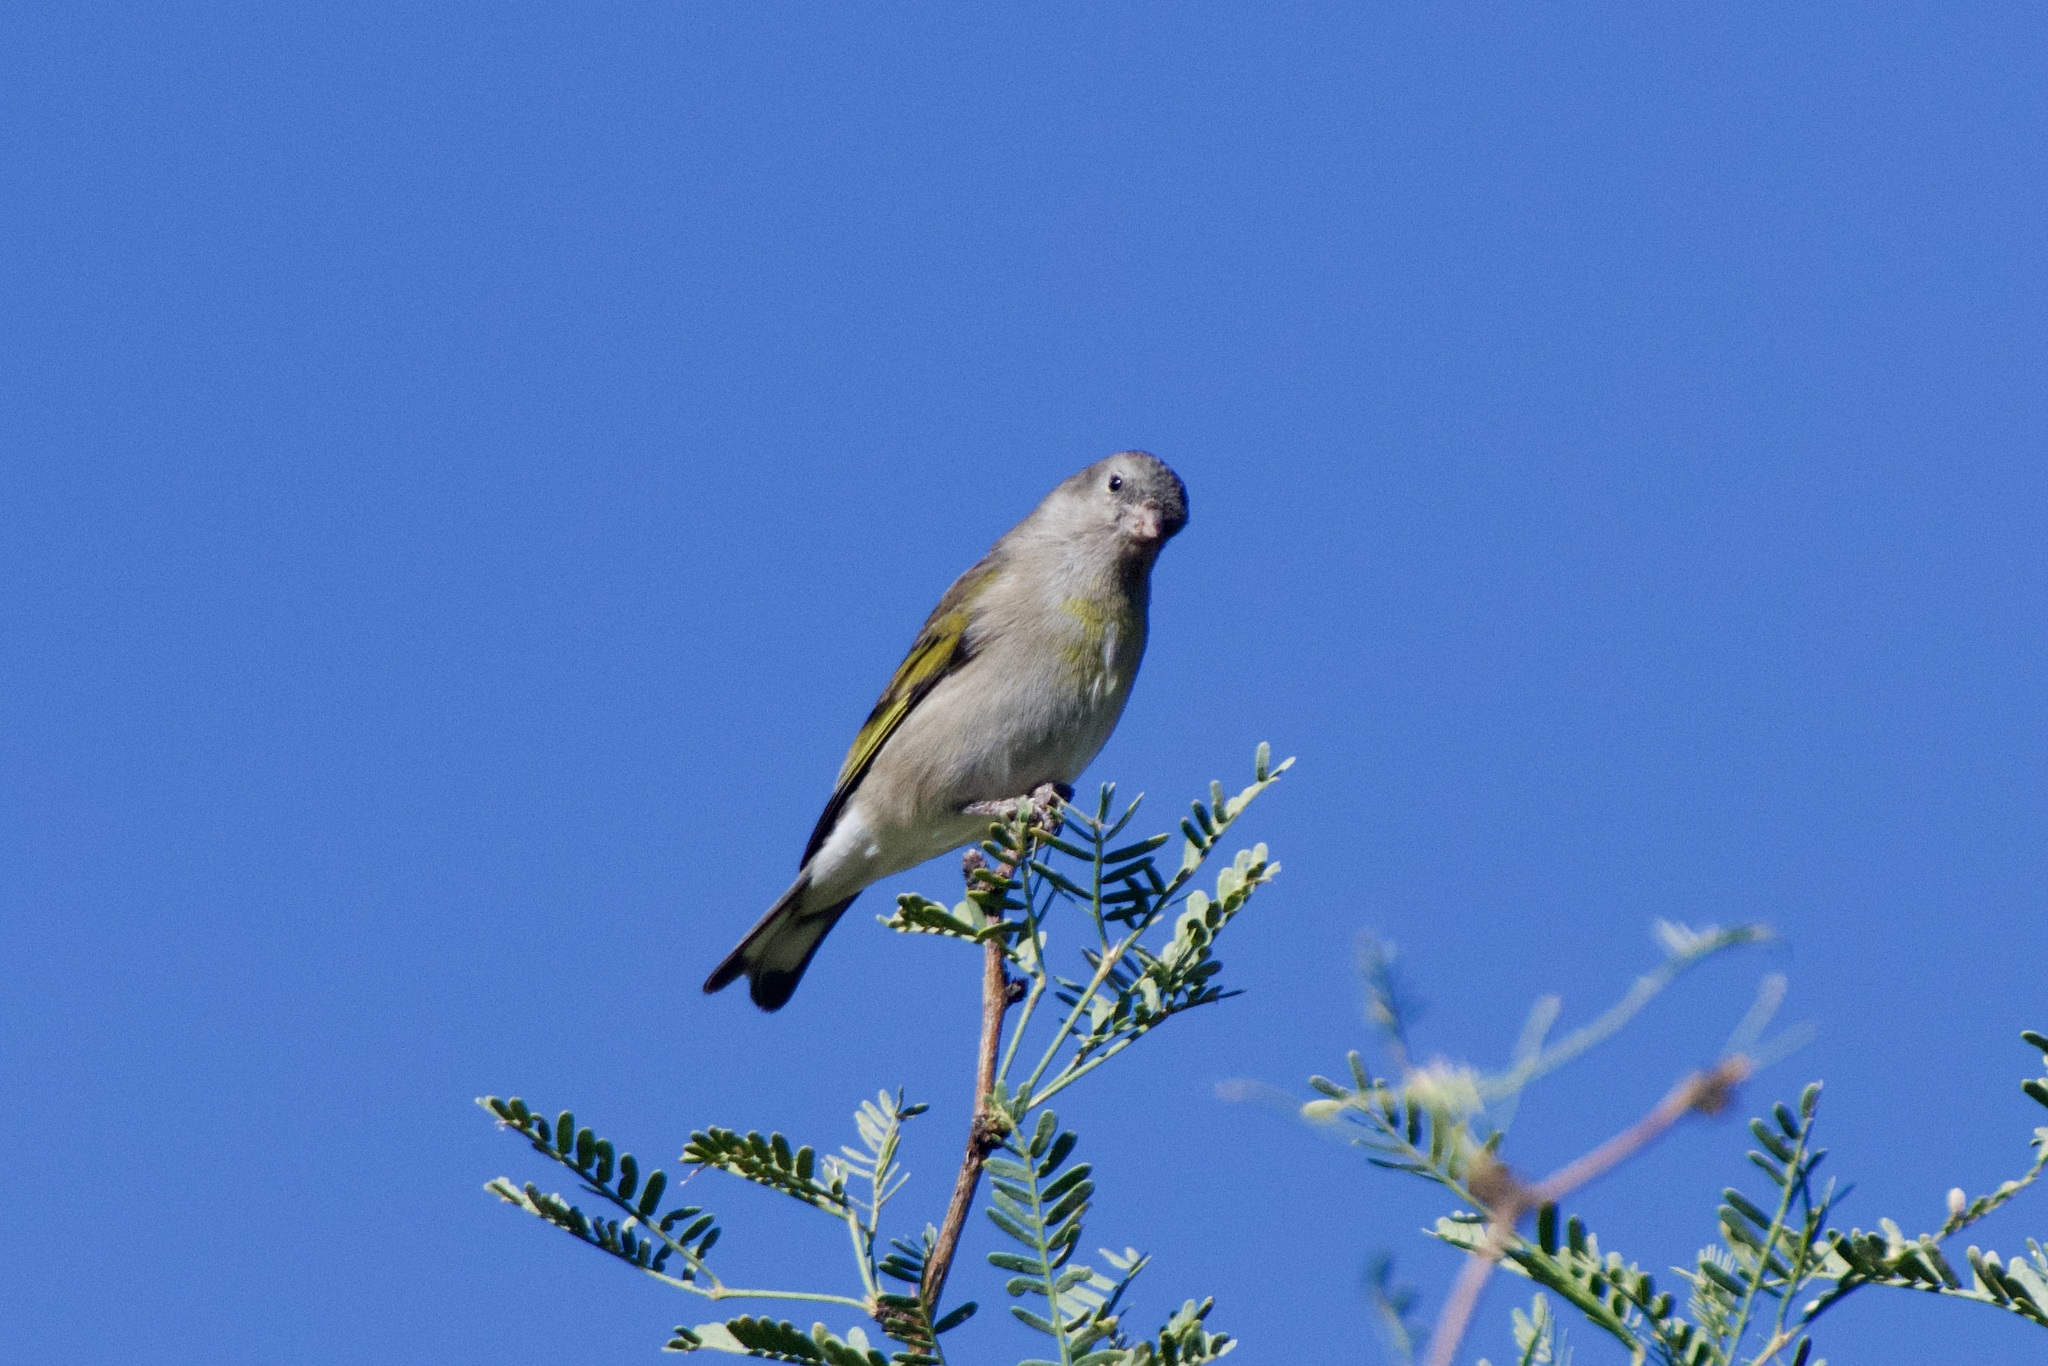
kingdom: Animalia
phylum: Chordata
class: Aves
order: Passeriformes
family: Fringillidae
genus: Spinus
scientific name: Spinus lawrencei
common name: Lawrence's goldfinch
